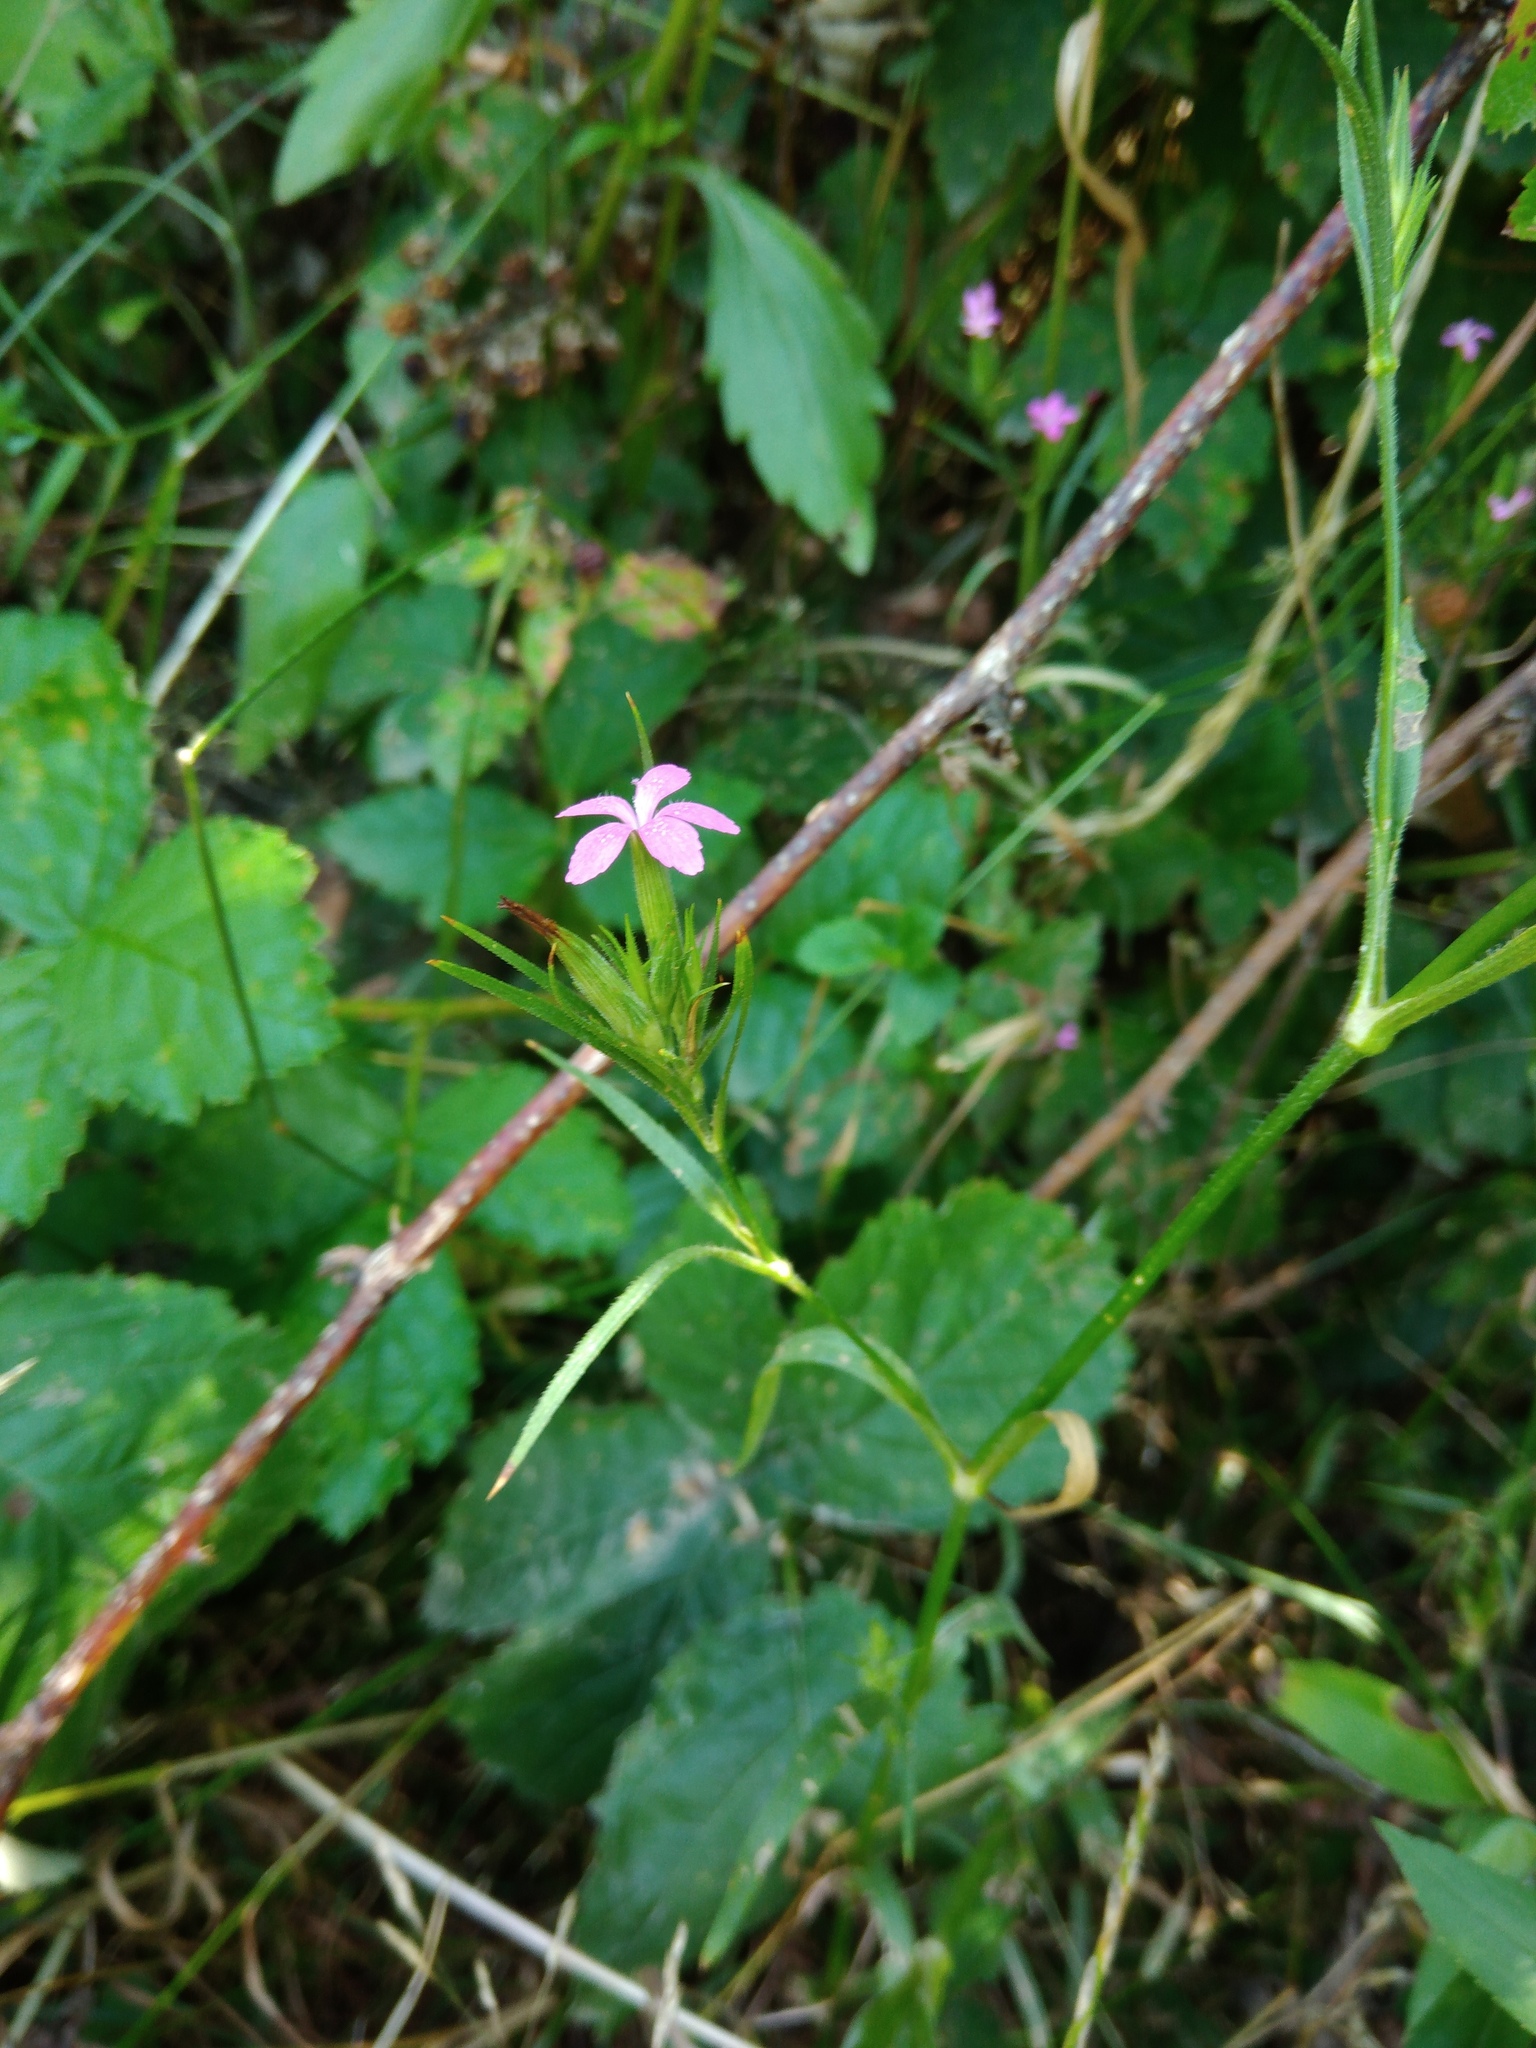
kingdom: Plantae
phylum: Tracheophyta
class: Magnoliopsida
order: Caryophyllales
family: Caryophyllaceae
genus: Dianthus
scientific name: Dianthus armeria
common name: Deptford pink
